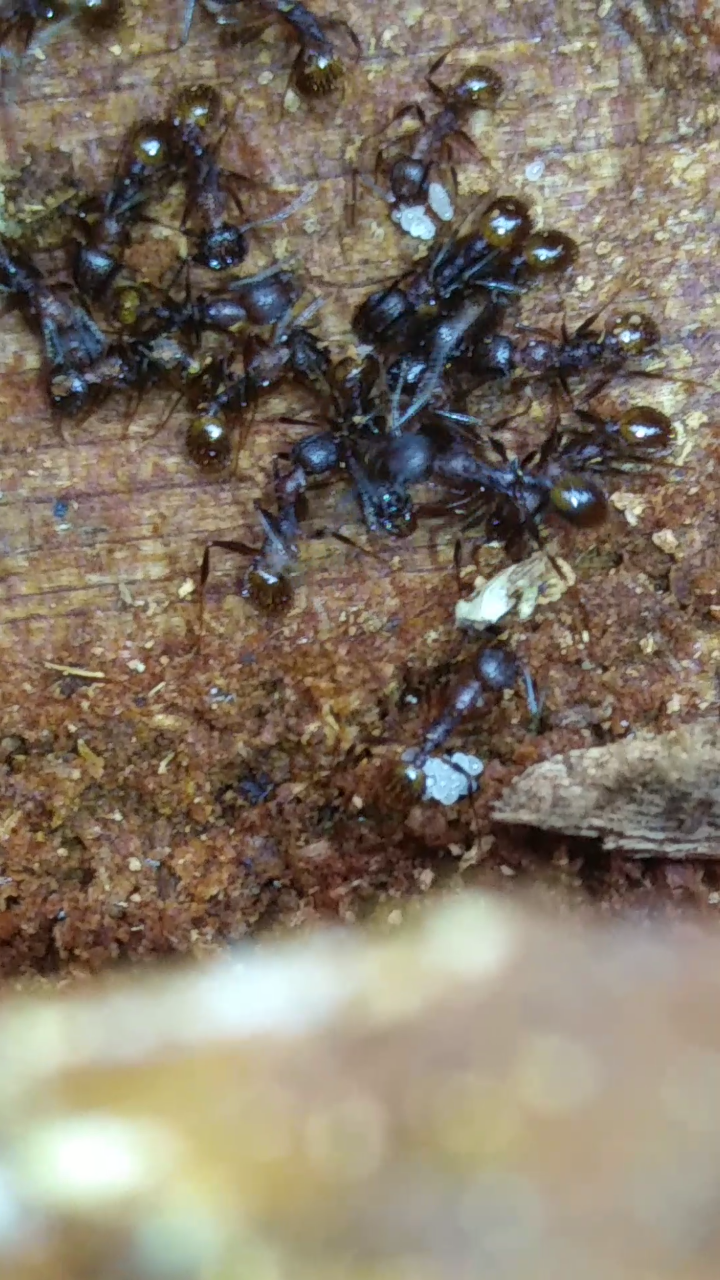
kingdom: Animalia
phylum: Arthropoda
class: Insecta
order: Hymenoptera
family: Formicidae
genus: Aphaenogaster
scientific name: Aphaenogaster fulva
